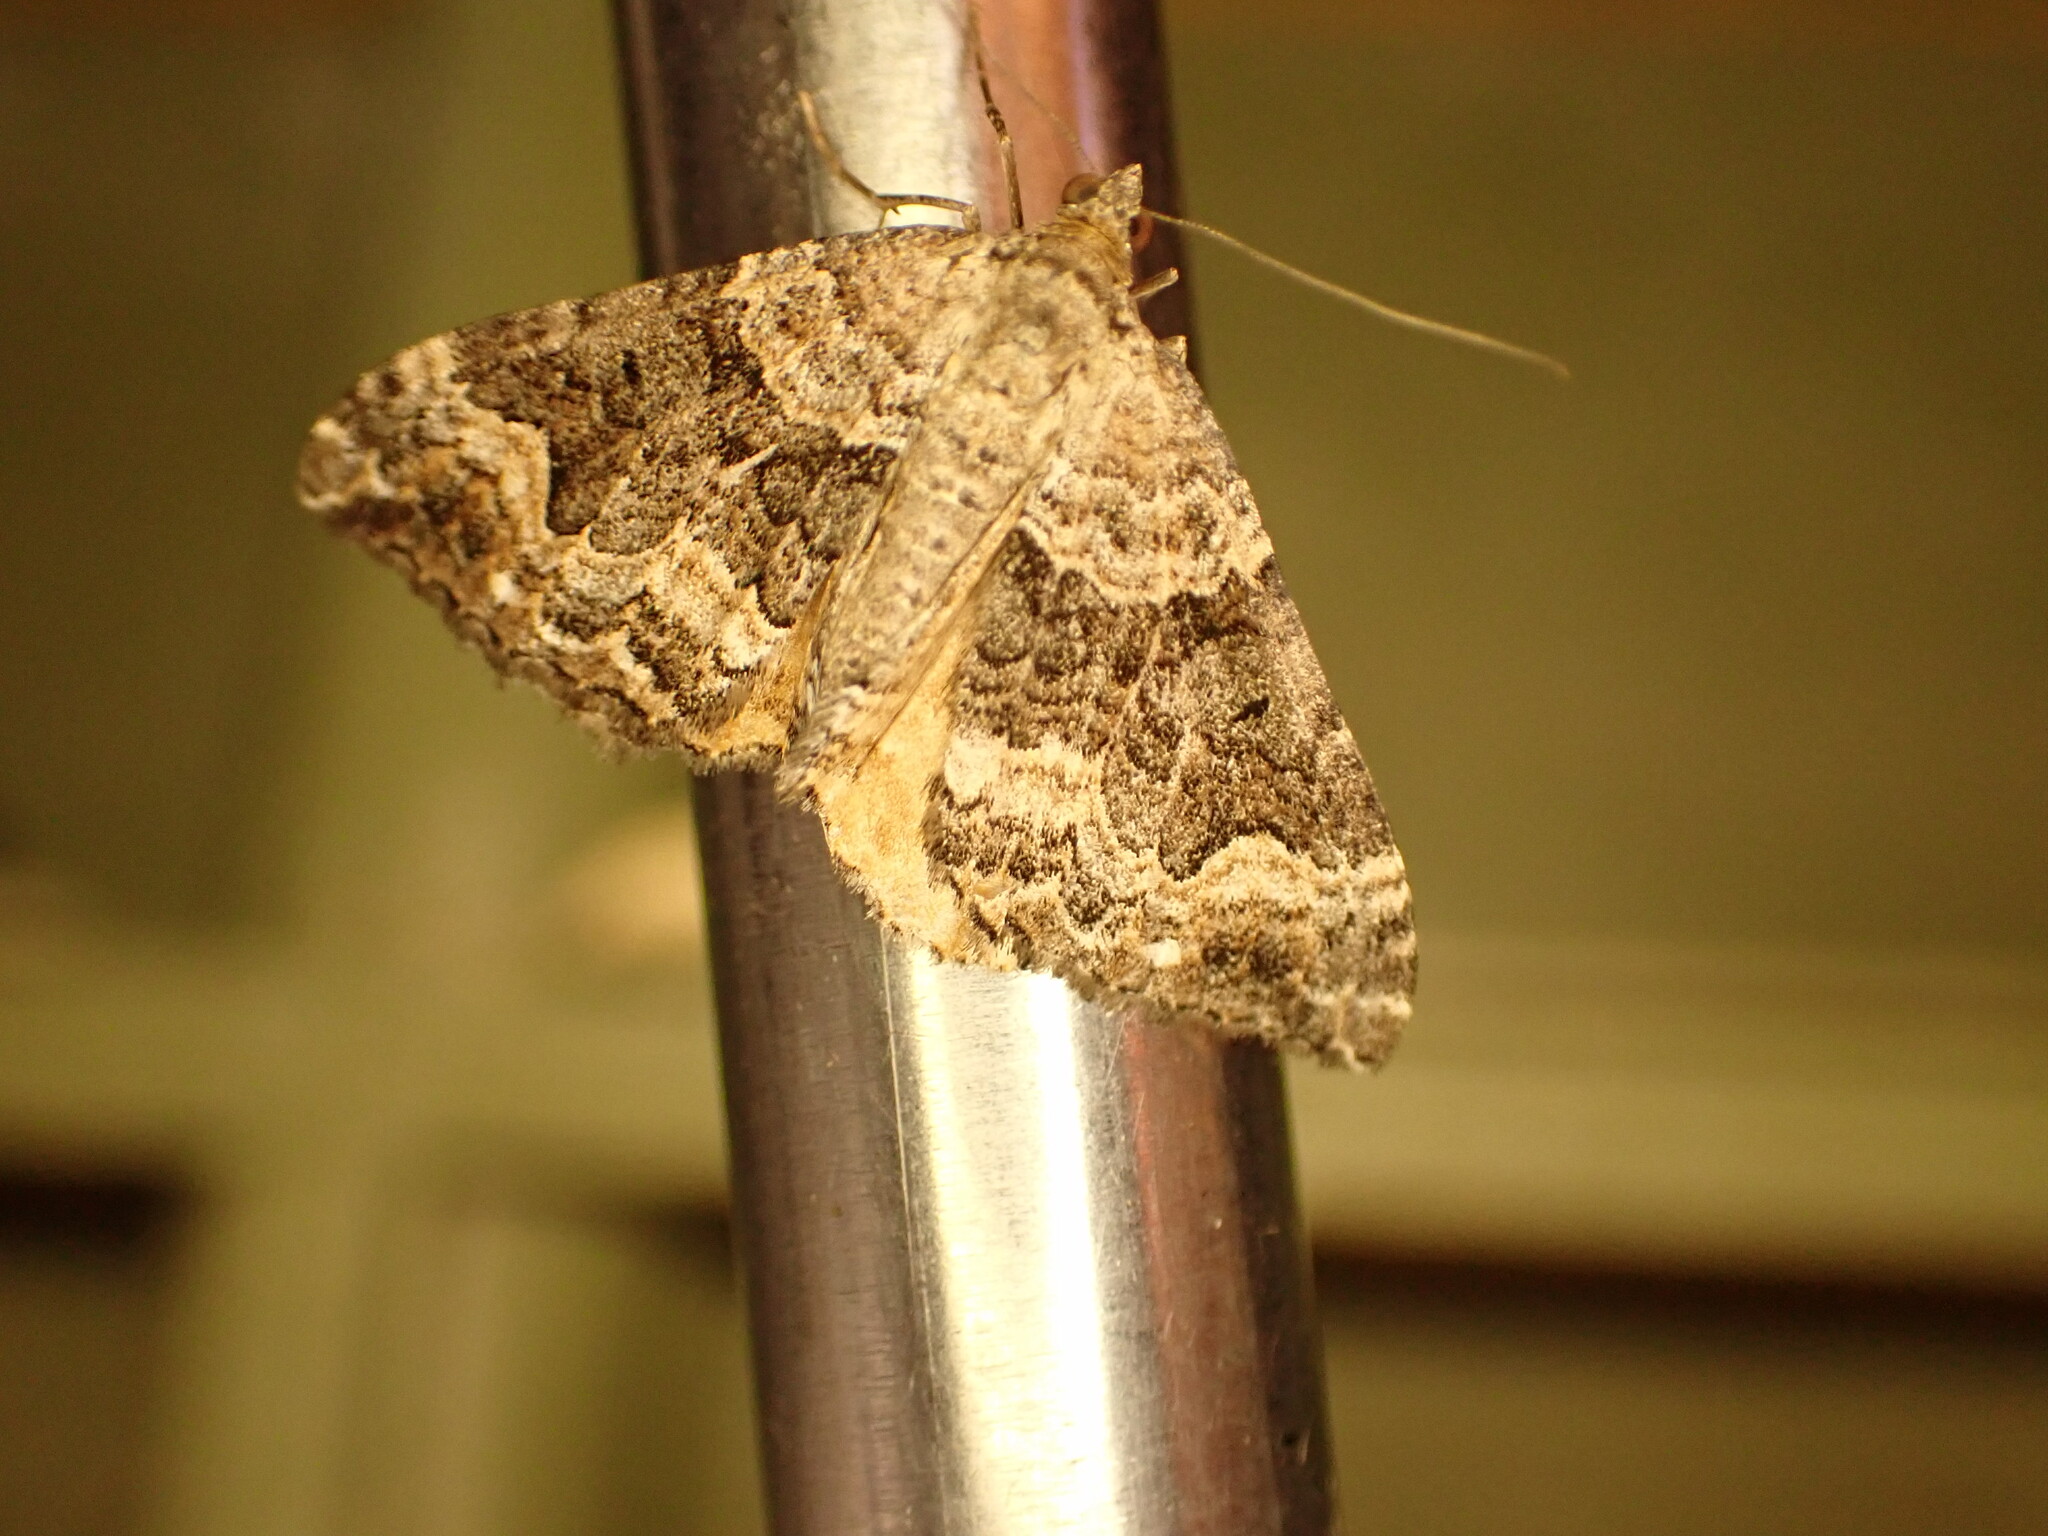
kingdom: Animalia
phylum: Arthropoda
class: Insecta
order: Lepidoptera
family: Geometridae
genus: Hydriomena
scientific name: Hydriomena deltoidata
